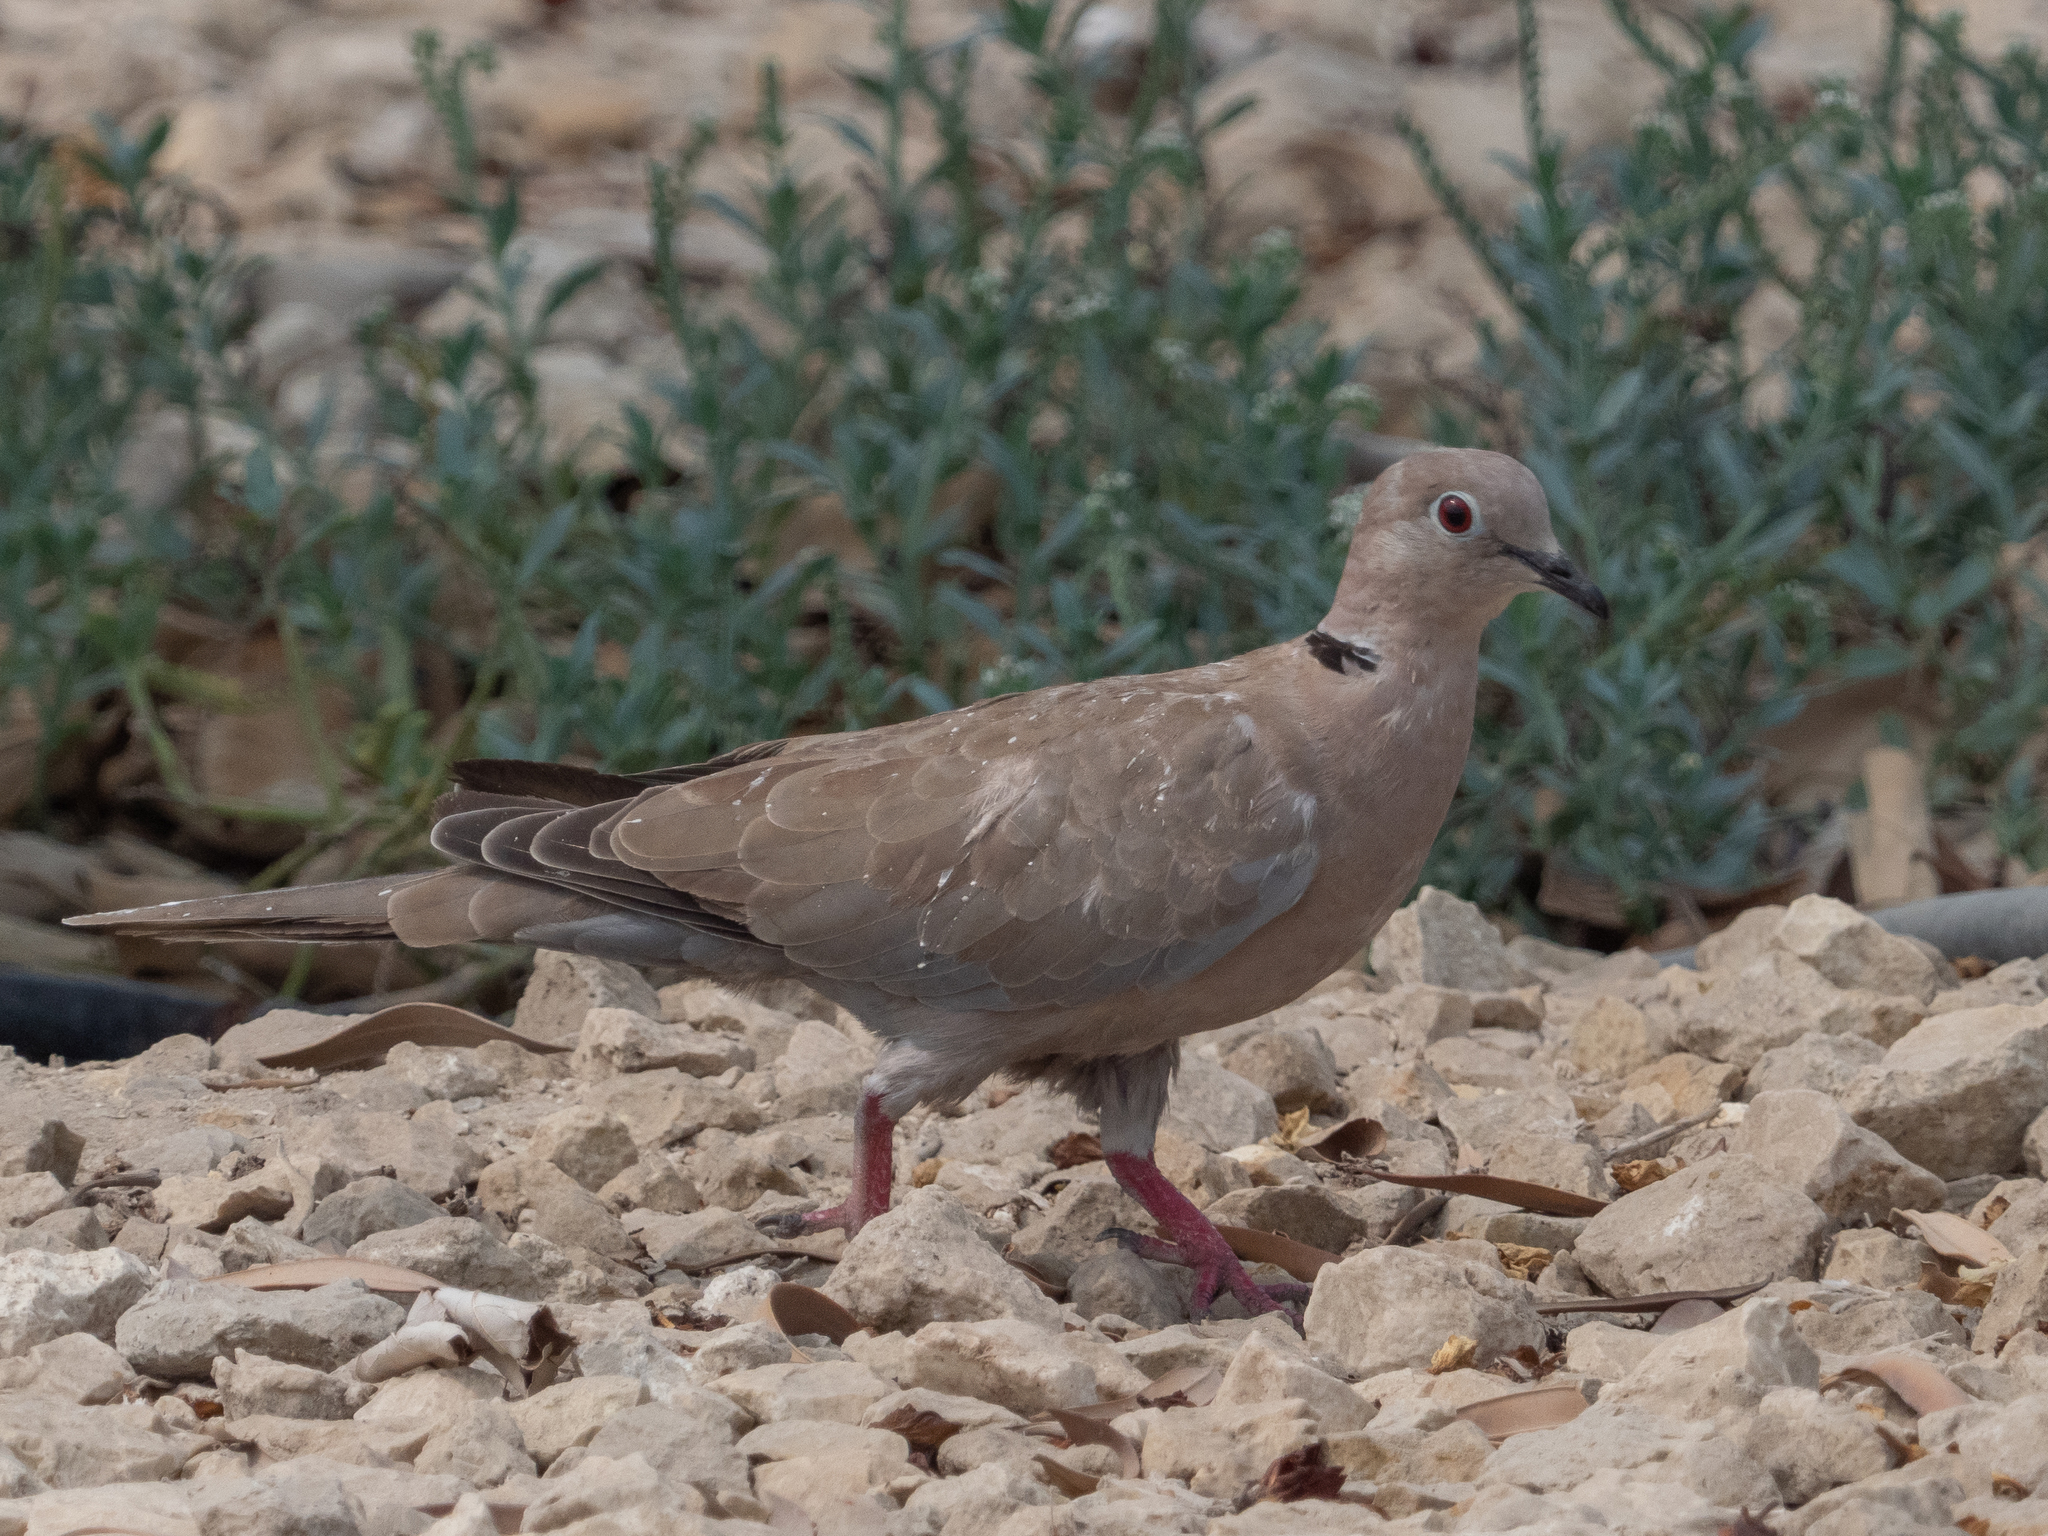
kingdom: Animalia
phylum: Chordata
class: Aves
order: Columbiformes
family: Columbidae
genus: Streptopelia
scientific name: Streptopelia decaocto
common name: Eurasian collared dove
